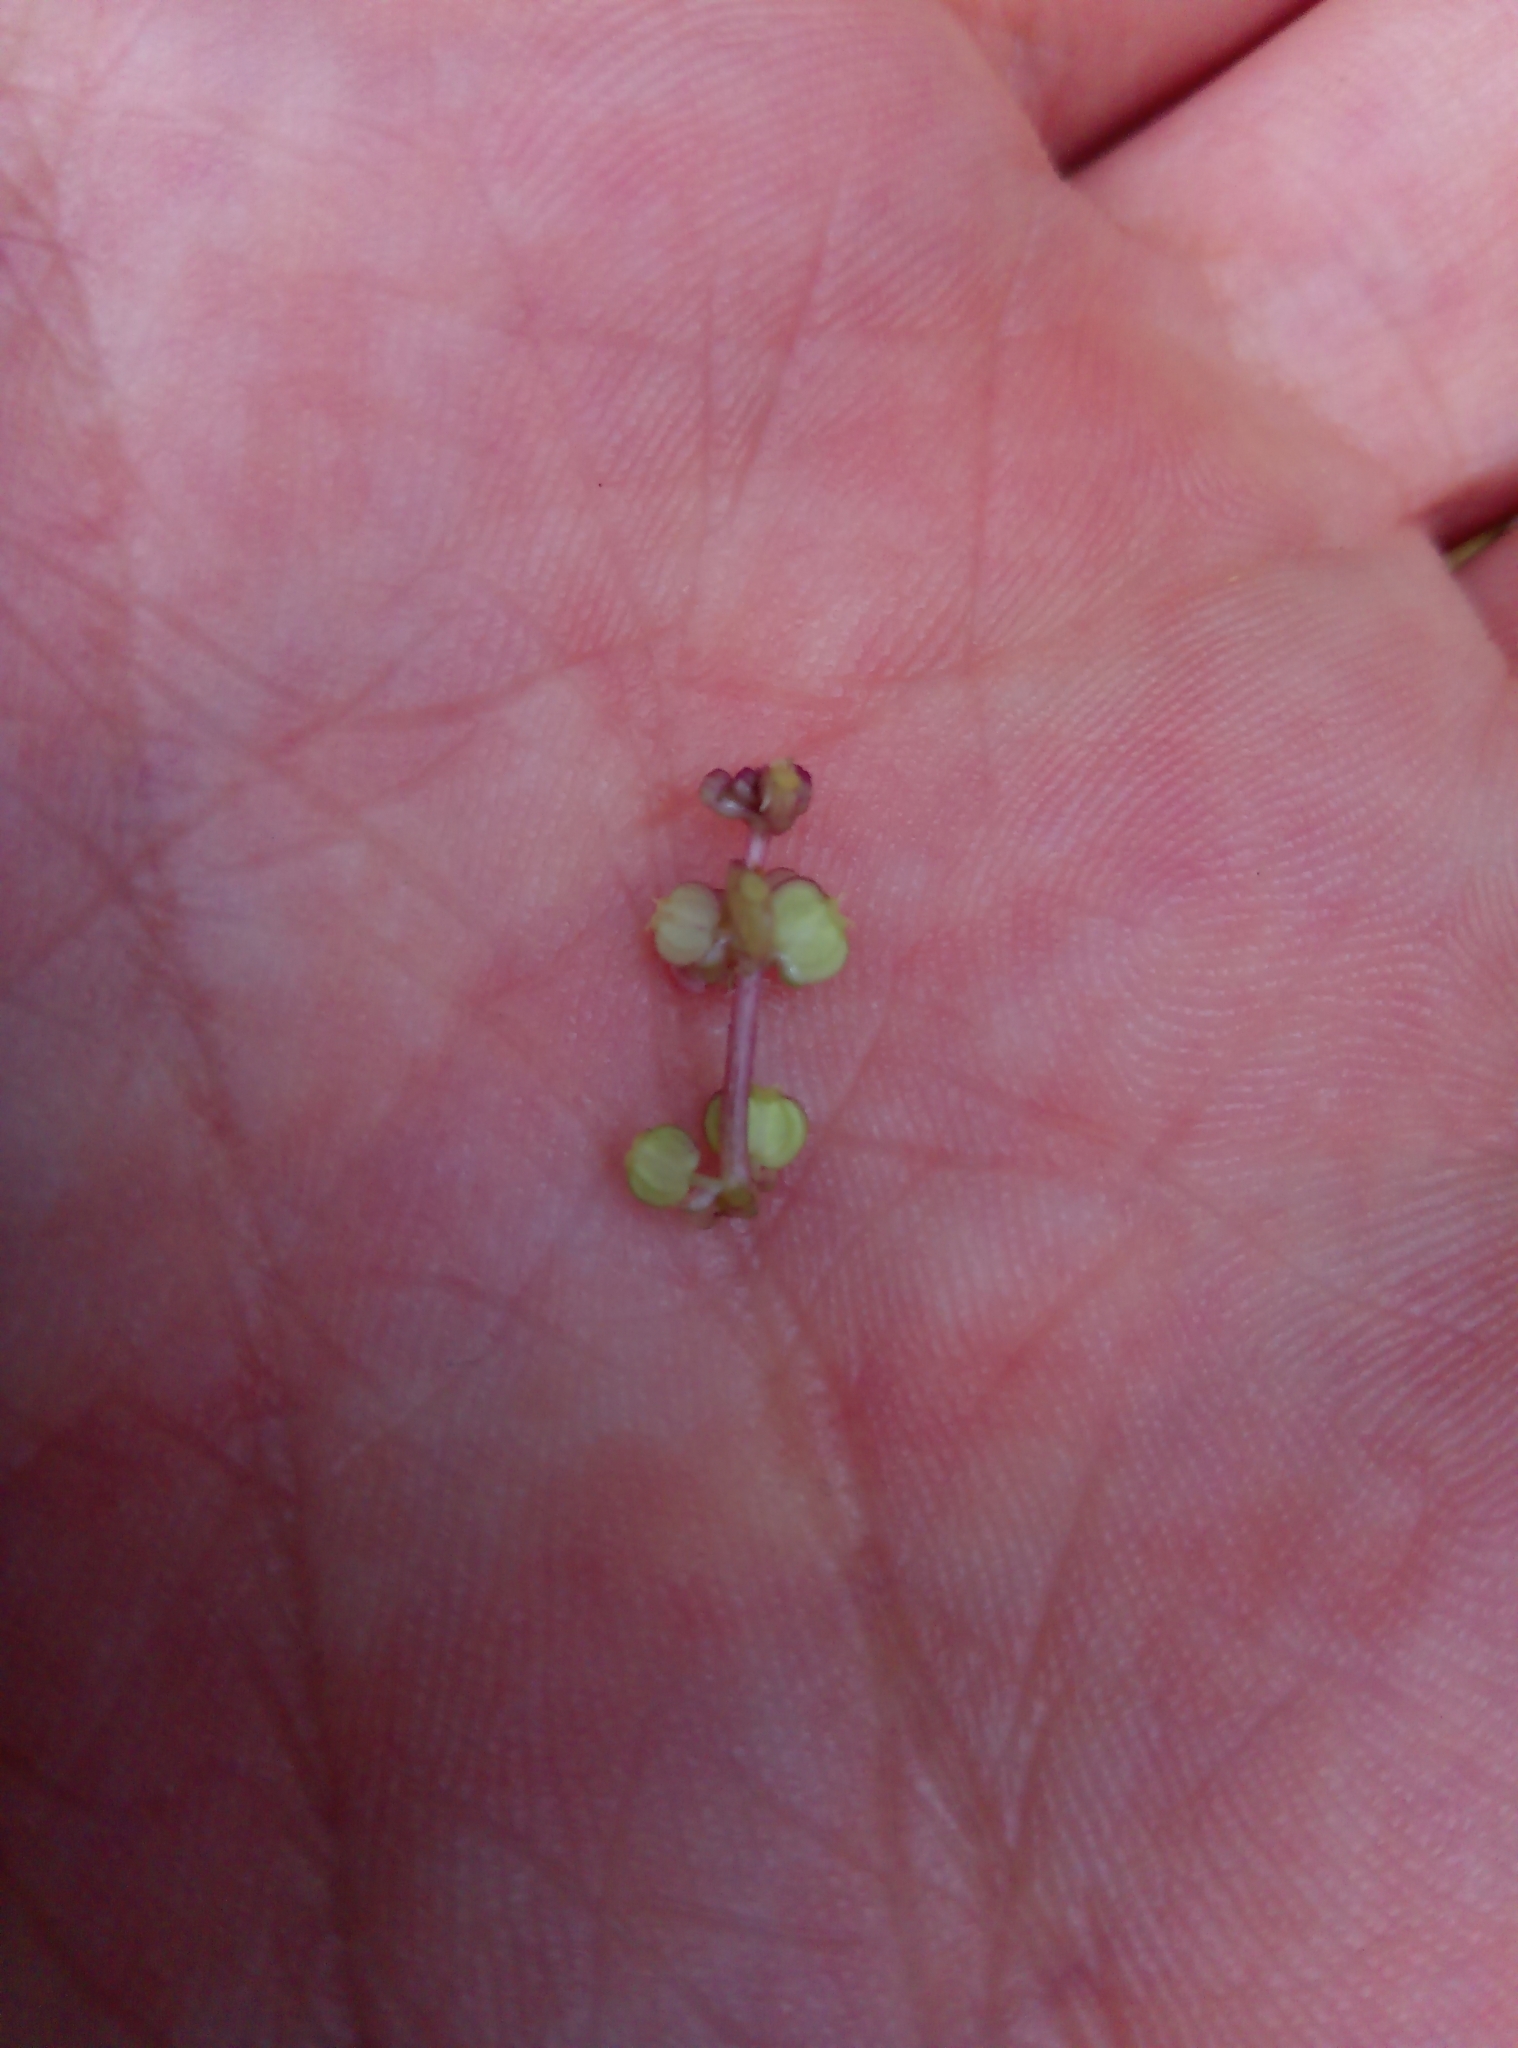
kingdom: Plantae
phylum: Tracheophyta
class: Magnoliopsida
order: Apiales
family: Araliaceae
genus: Hydrocotyle
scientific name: Hydrocotyle vulgaris
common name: Marsh pennywort
